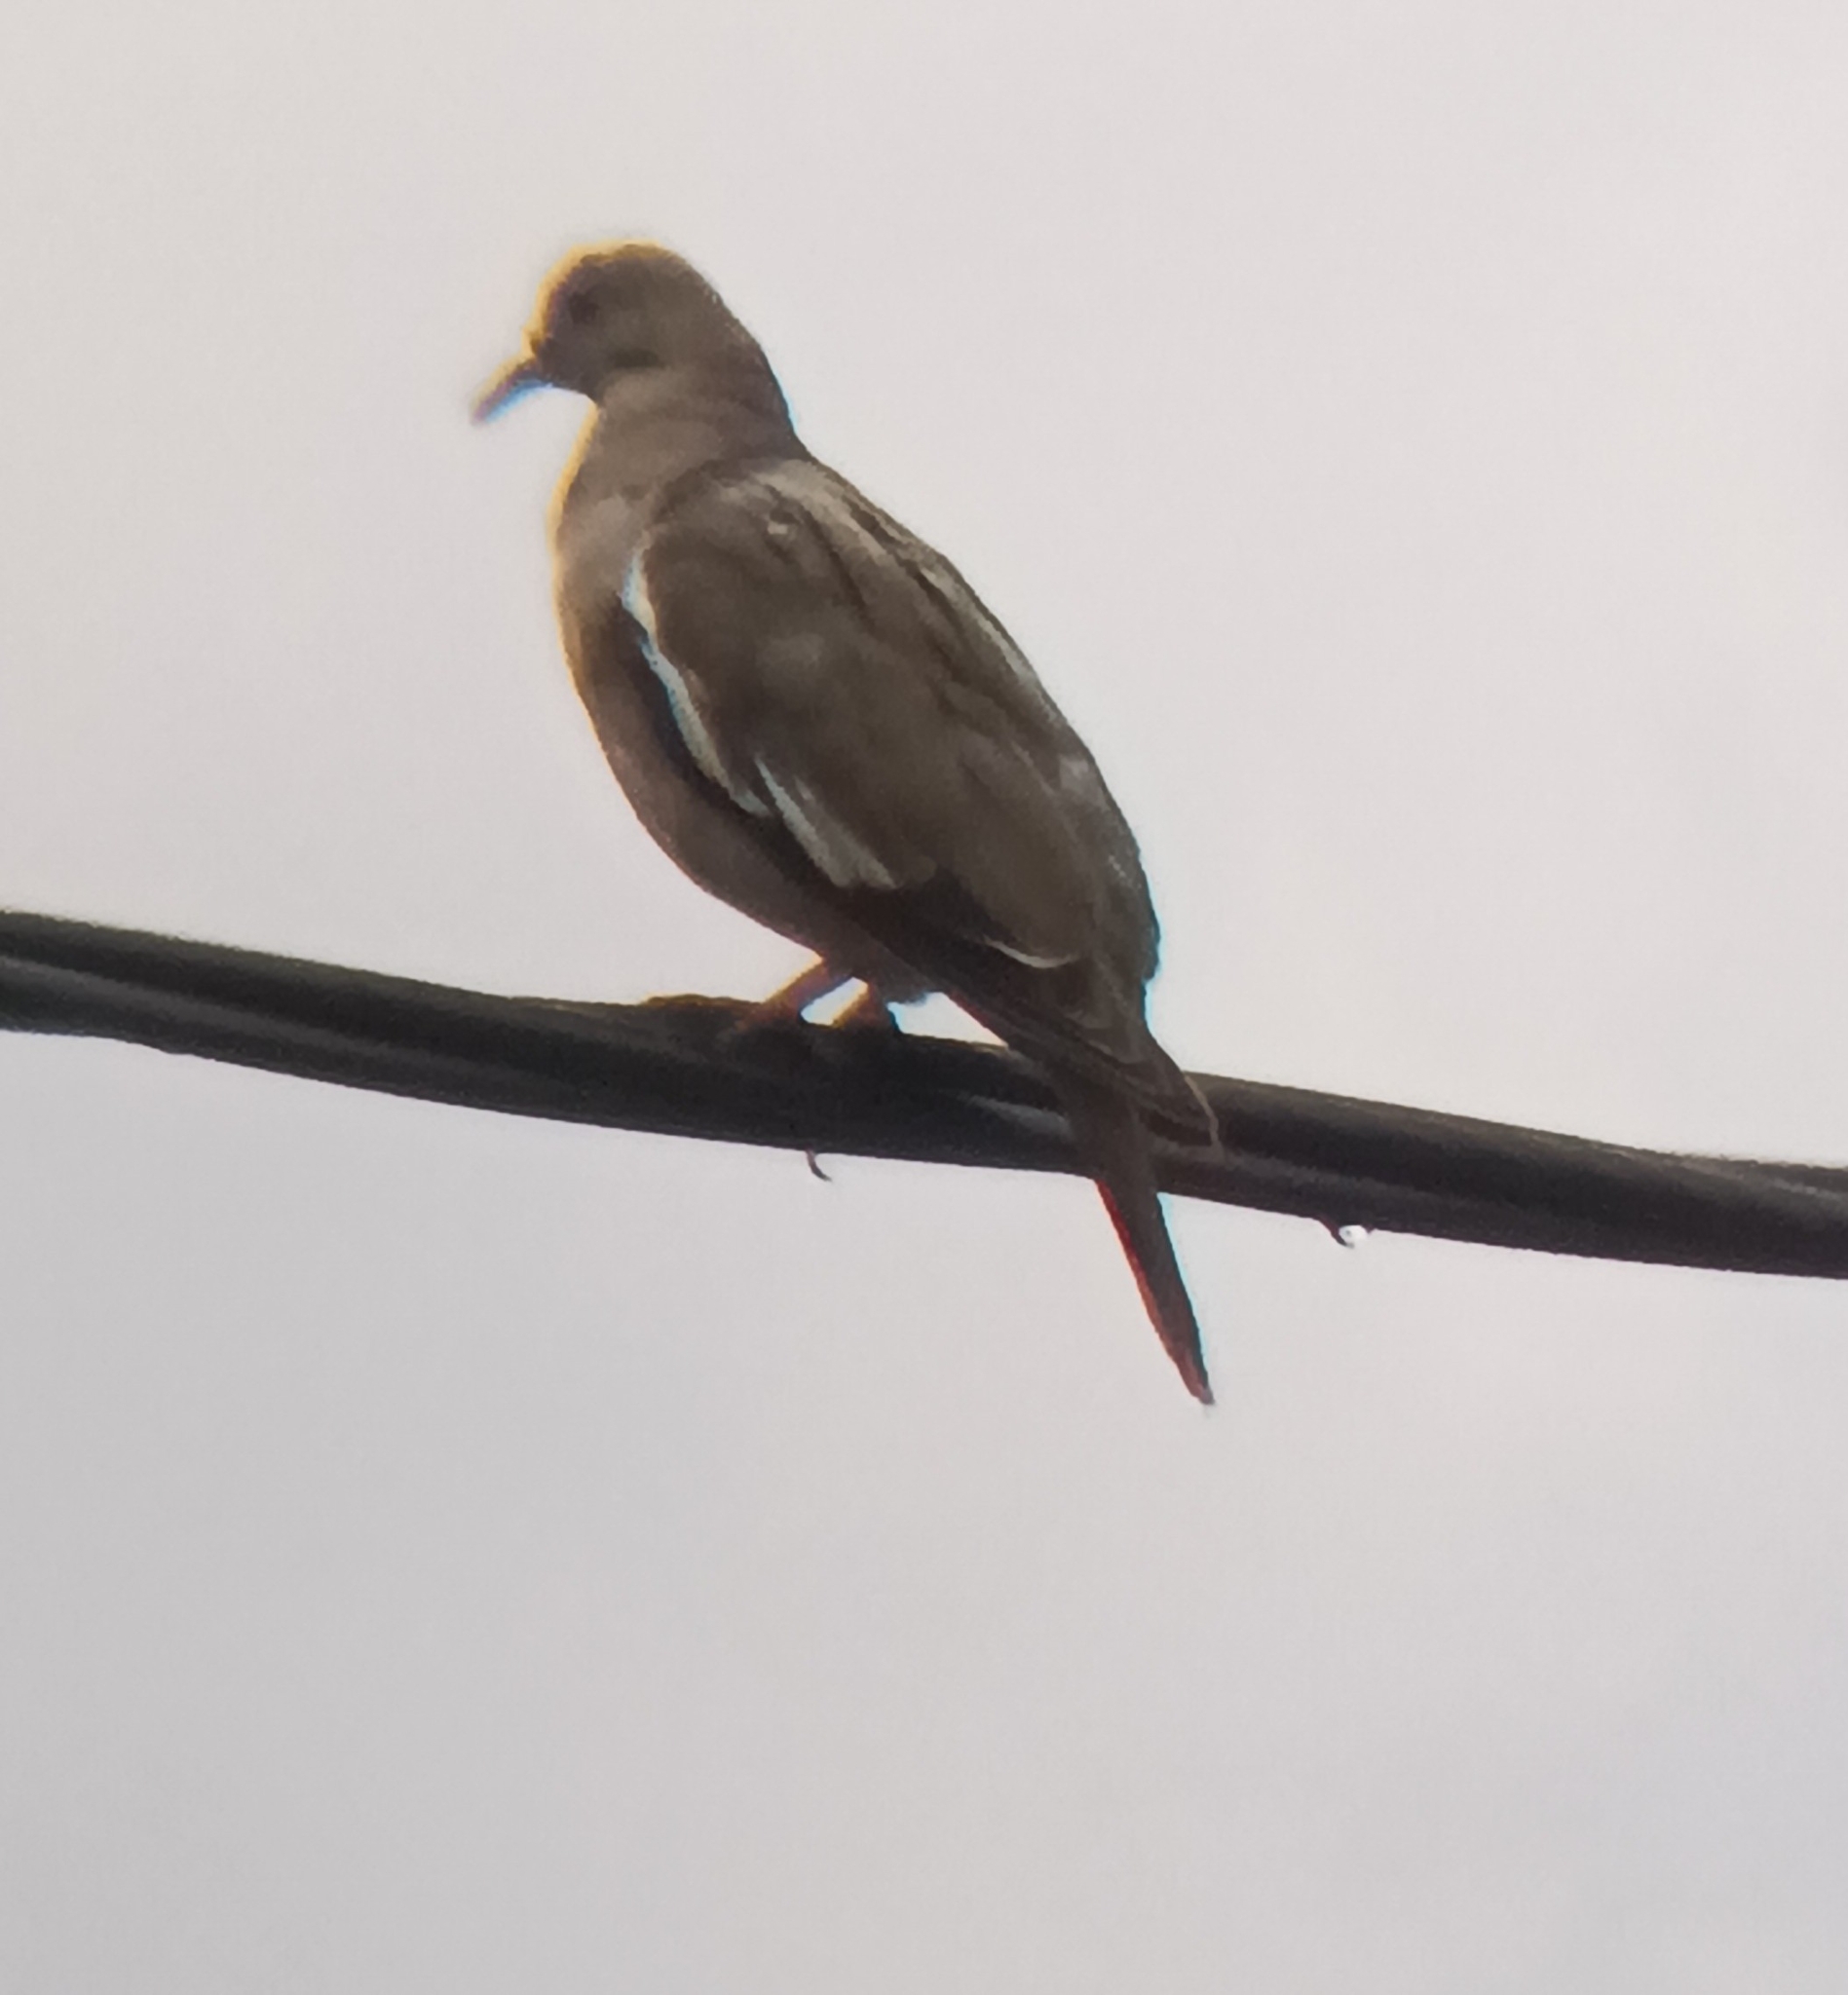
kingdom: Animalia
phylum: Chordata
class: Aves
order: Columbiformes
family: Columbidae
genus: Zenaida
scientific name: Zenaida asiatica
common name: White-winged dove
